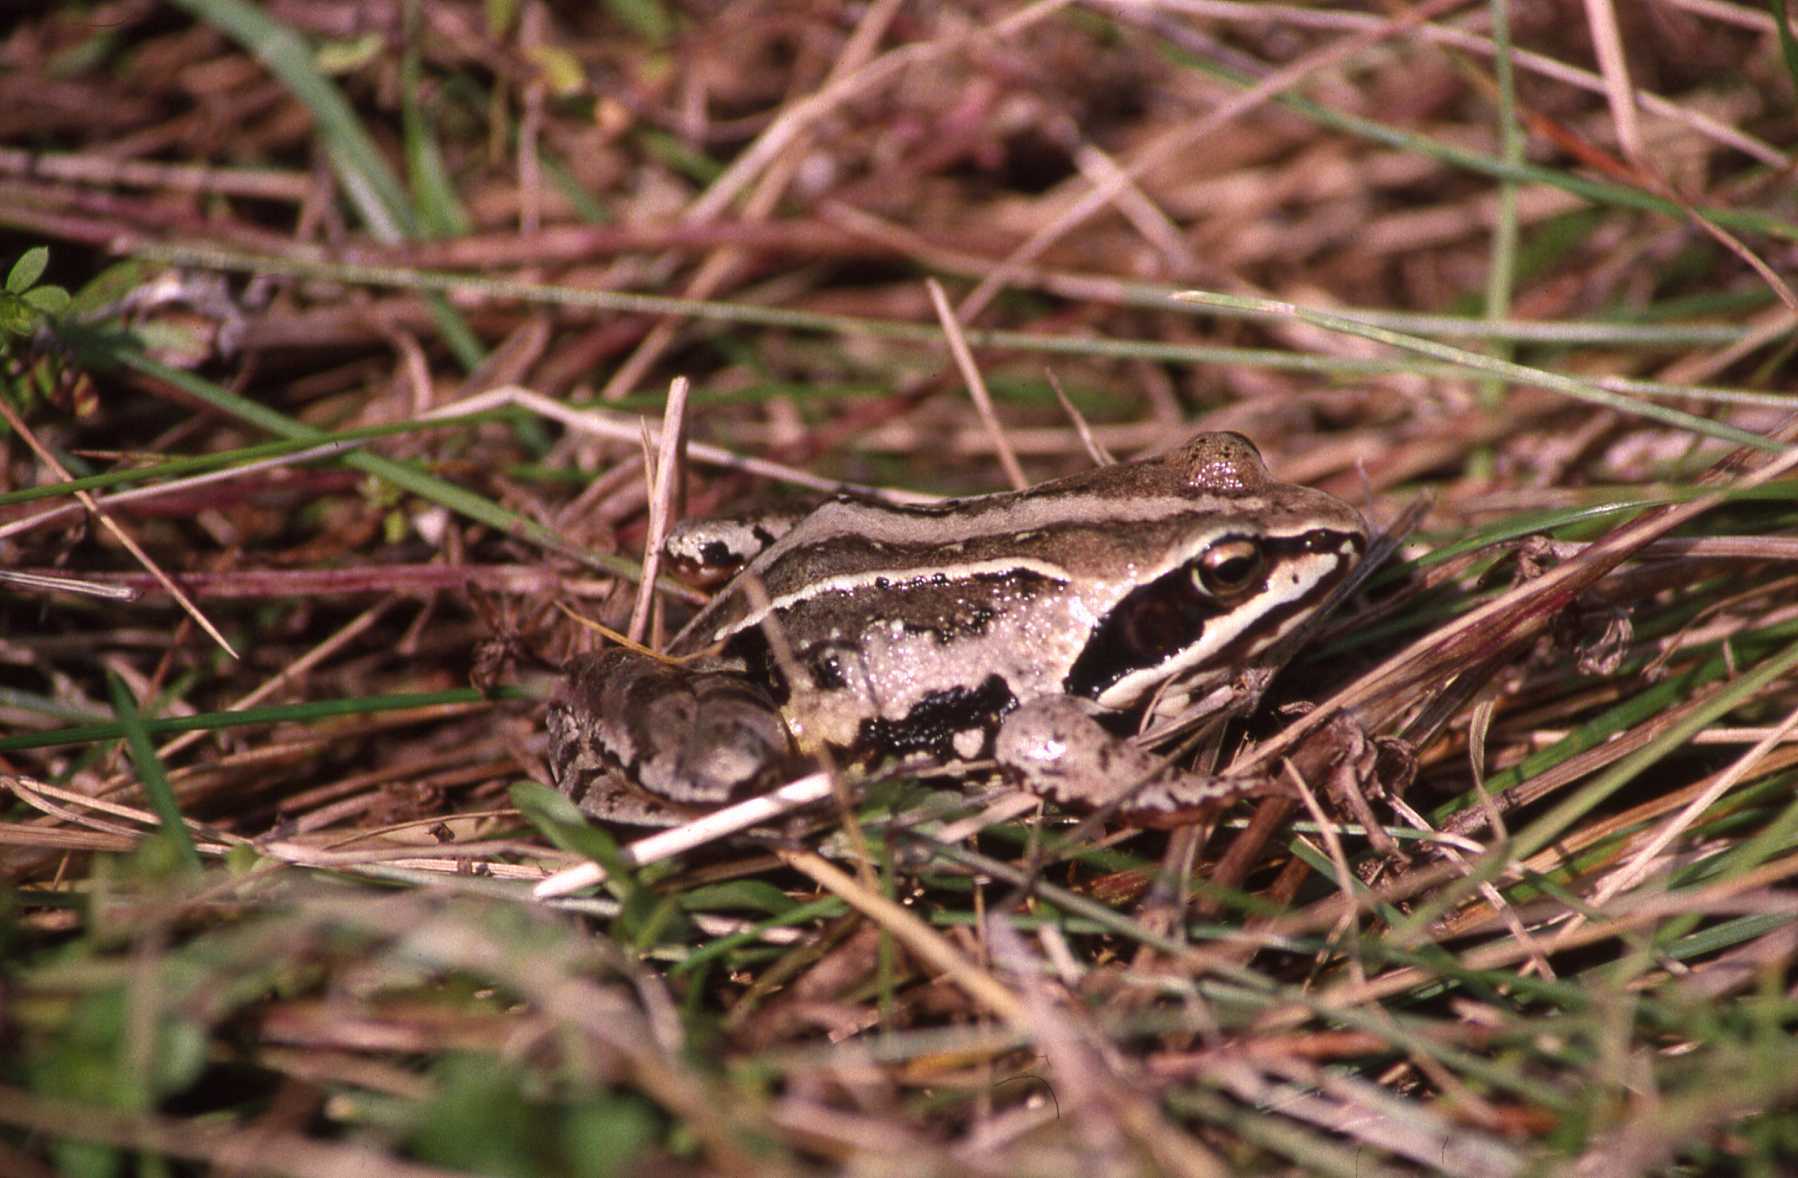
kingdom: Animalia
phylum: Chordata
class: Amphibia
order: Anura
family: Ranidae
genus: Rana
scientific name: Rana arvalis
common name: Moor frog
